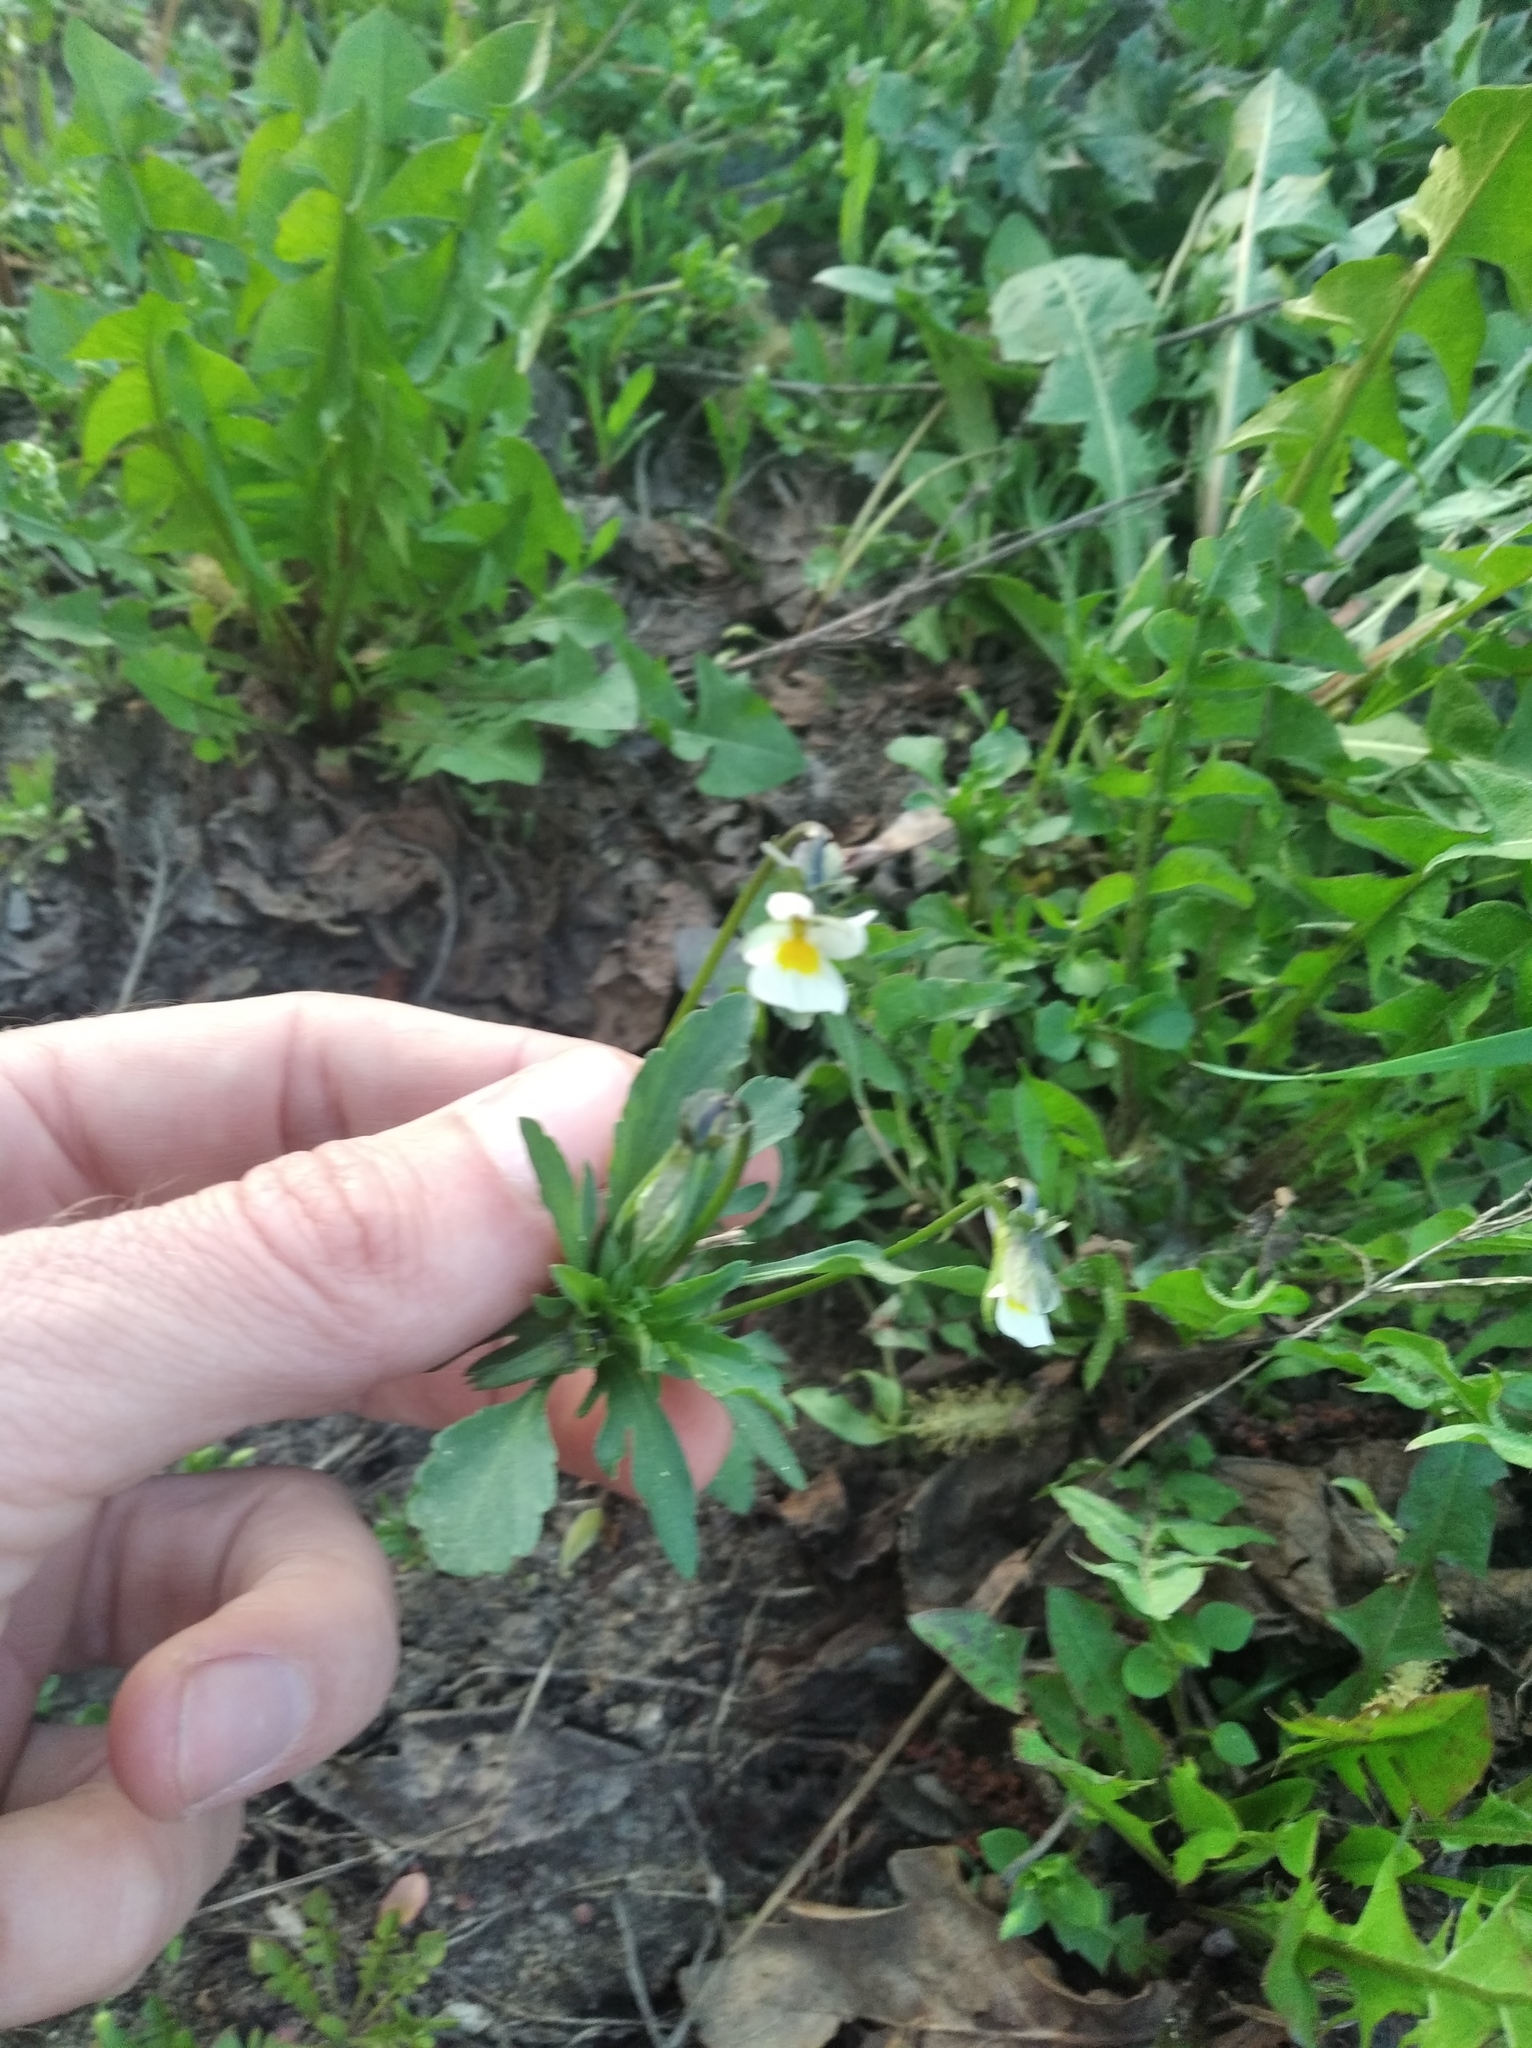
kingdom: Plantae
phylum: Tracheophyta
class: Magnoliopsida
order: Malpighiales
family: Violaceae
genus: Viola
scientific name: Viola arvensis
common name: Field pansy
